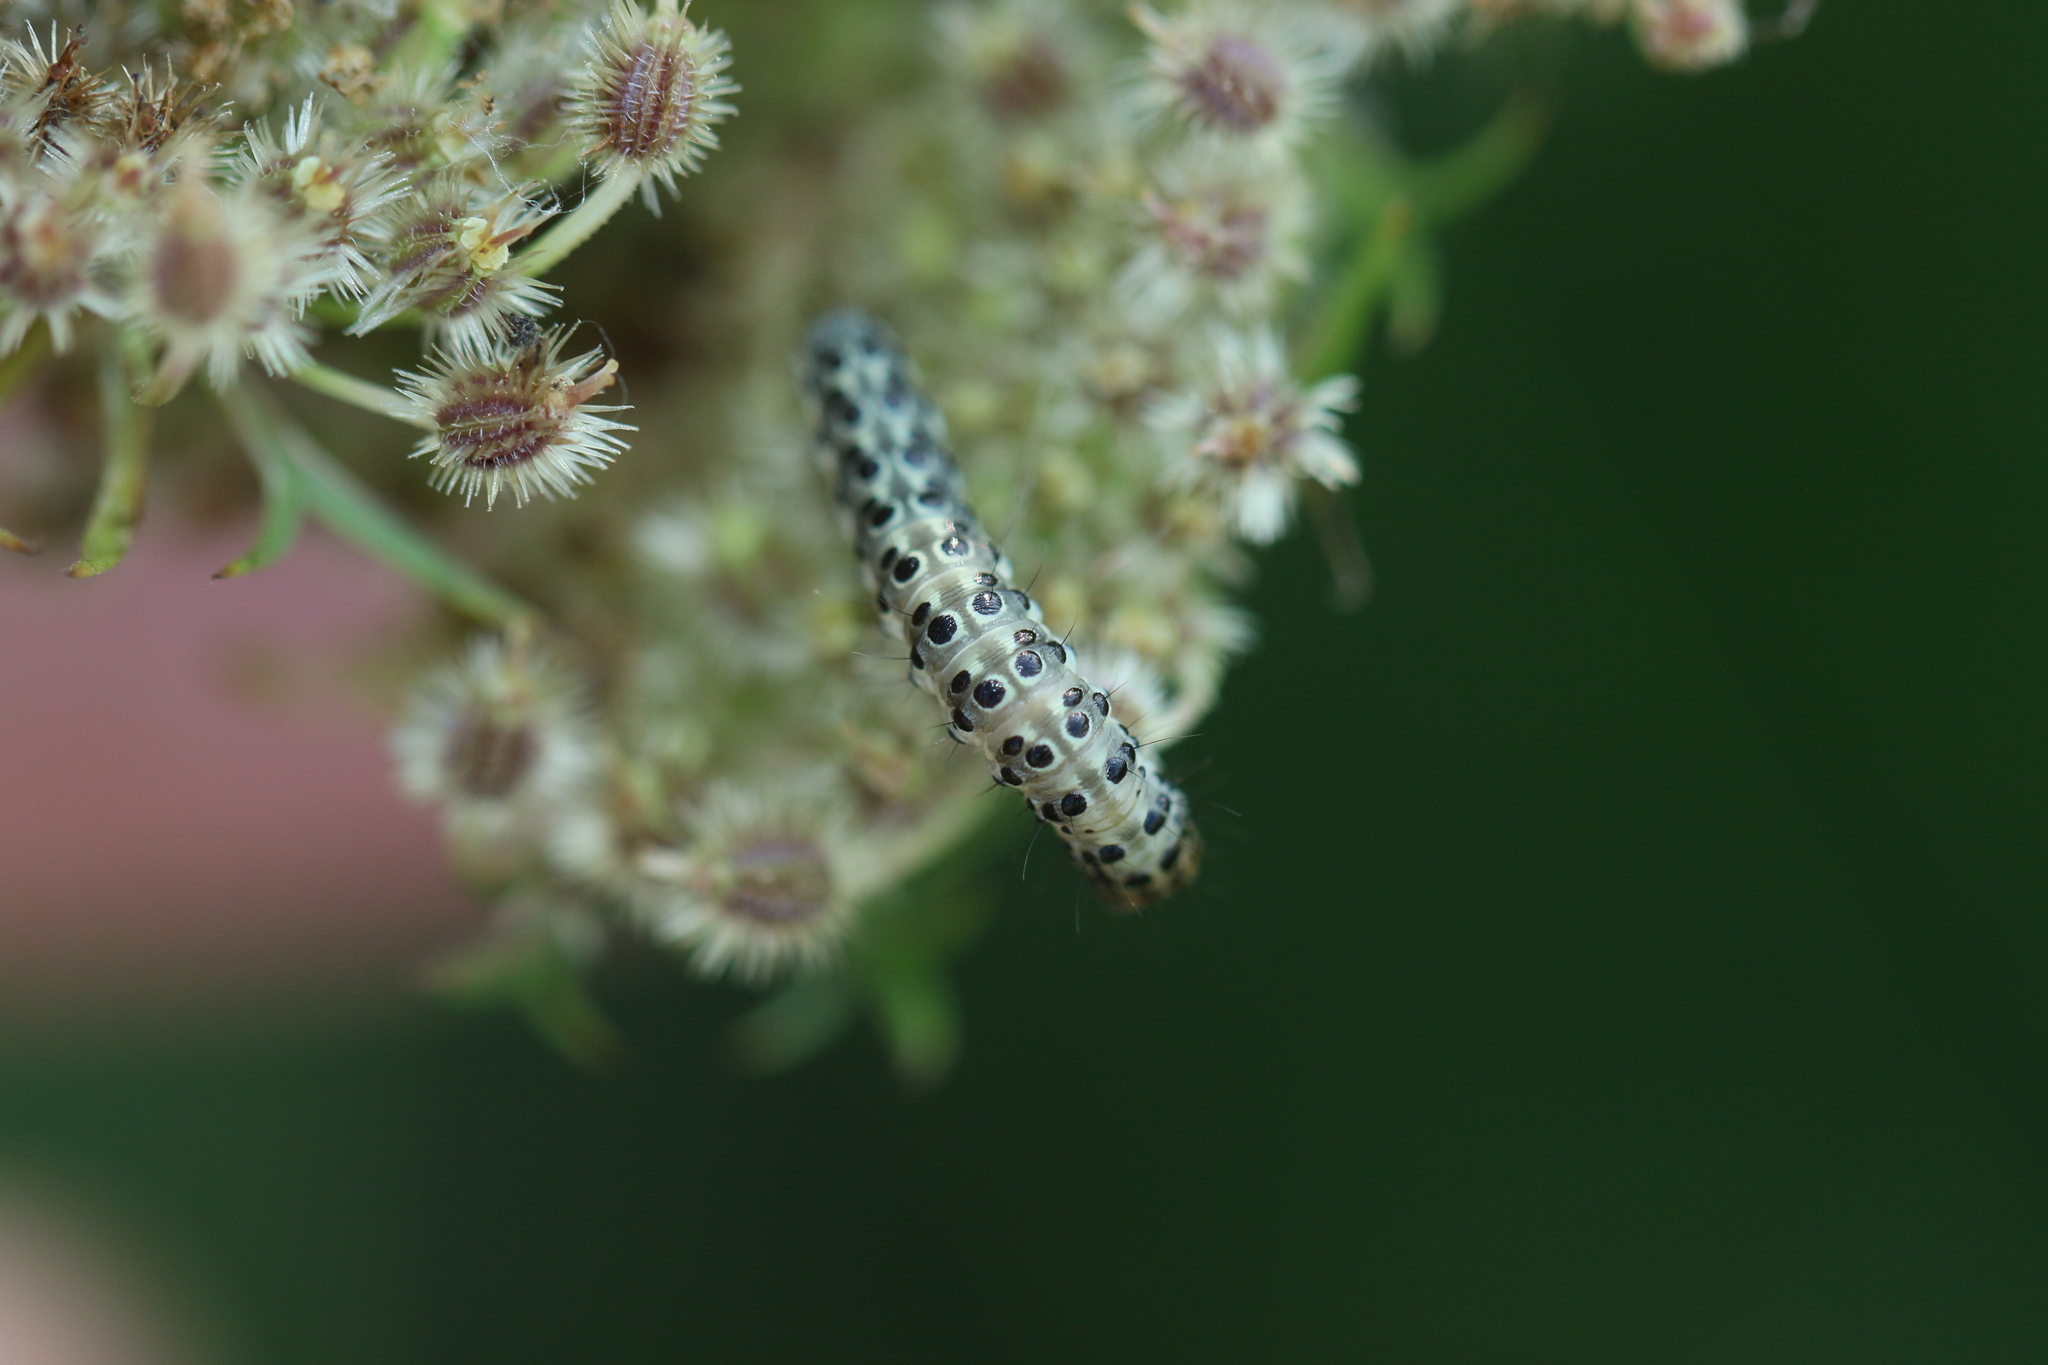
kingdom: Animalia
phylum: Arthropoda
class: Insecta
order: Lepidoptera
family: Crambidae
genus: Sitochroa
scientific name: Sitochroa palealis
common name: Greenish-yellow sitochroa moth
